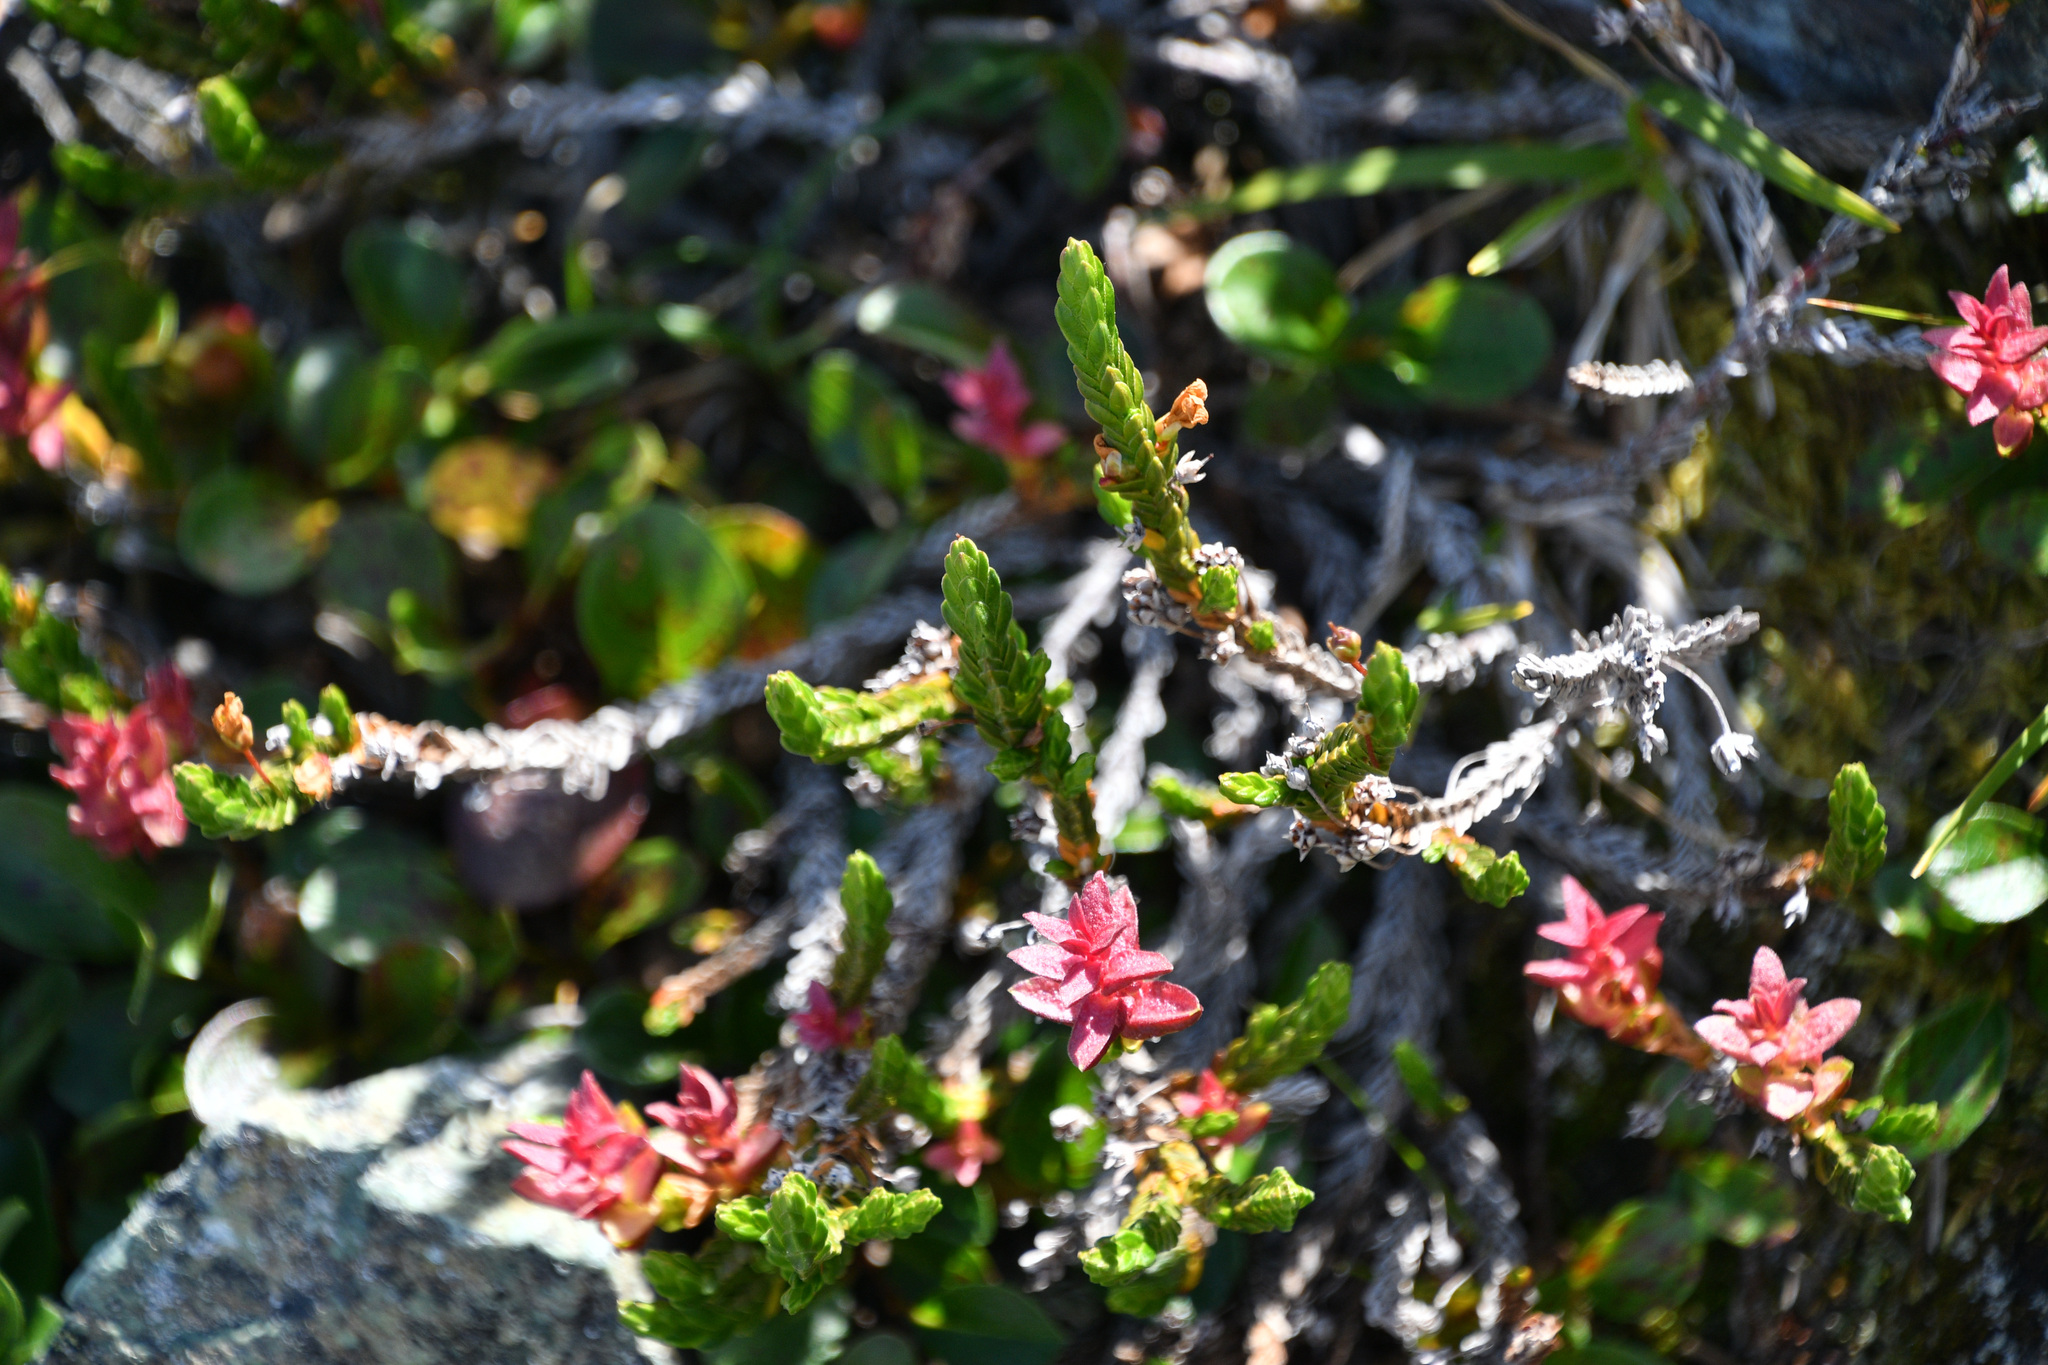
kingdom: Plantae
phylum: Tracheophyta
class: Magnoliopsida
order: Ericales
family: Ericaceae
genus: Cassiope
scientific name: Cassiope tetragona
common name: Arctic bell heather
